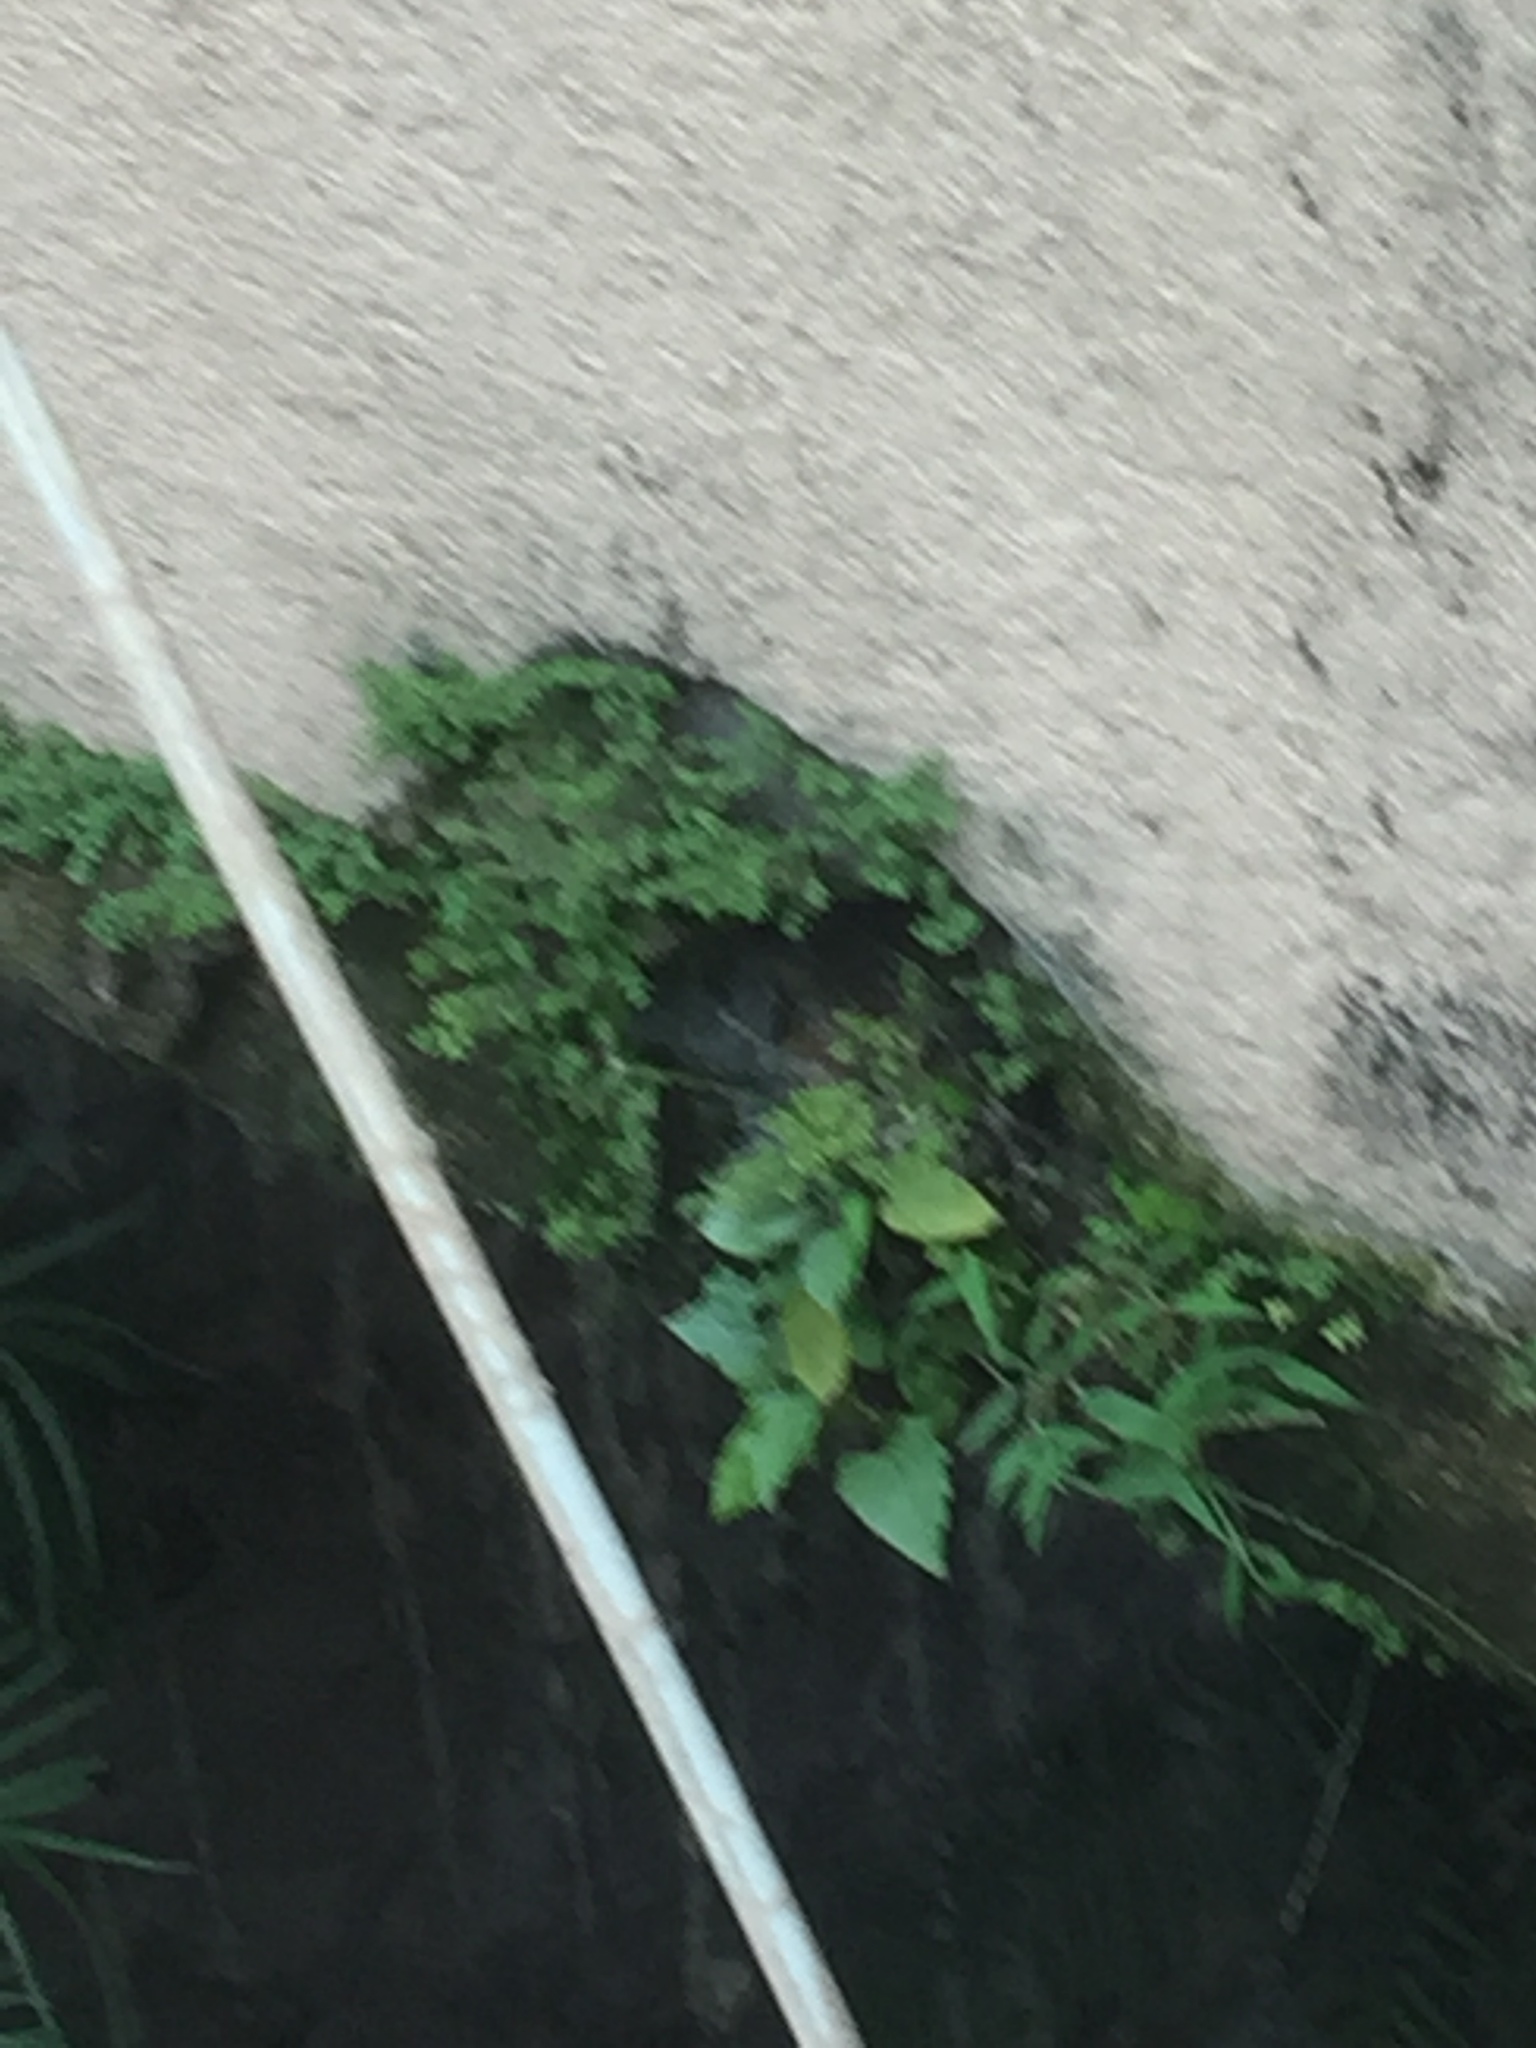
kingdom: Plantae
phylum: Tracheophyta
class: Magnoliopsida
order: Rosales
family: Urticaceae
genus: Pilea
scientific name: Pilea microphylla
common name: Artillery-plant
